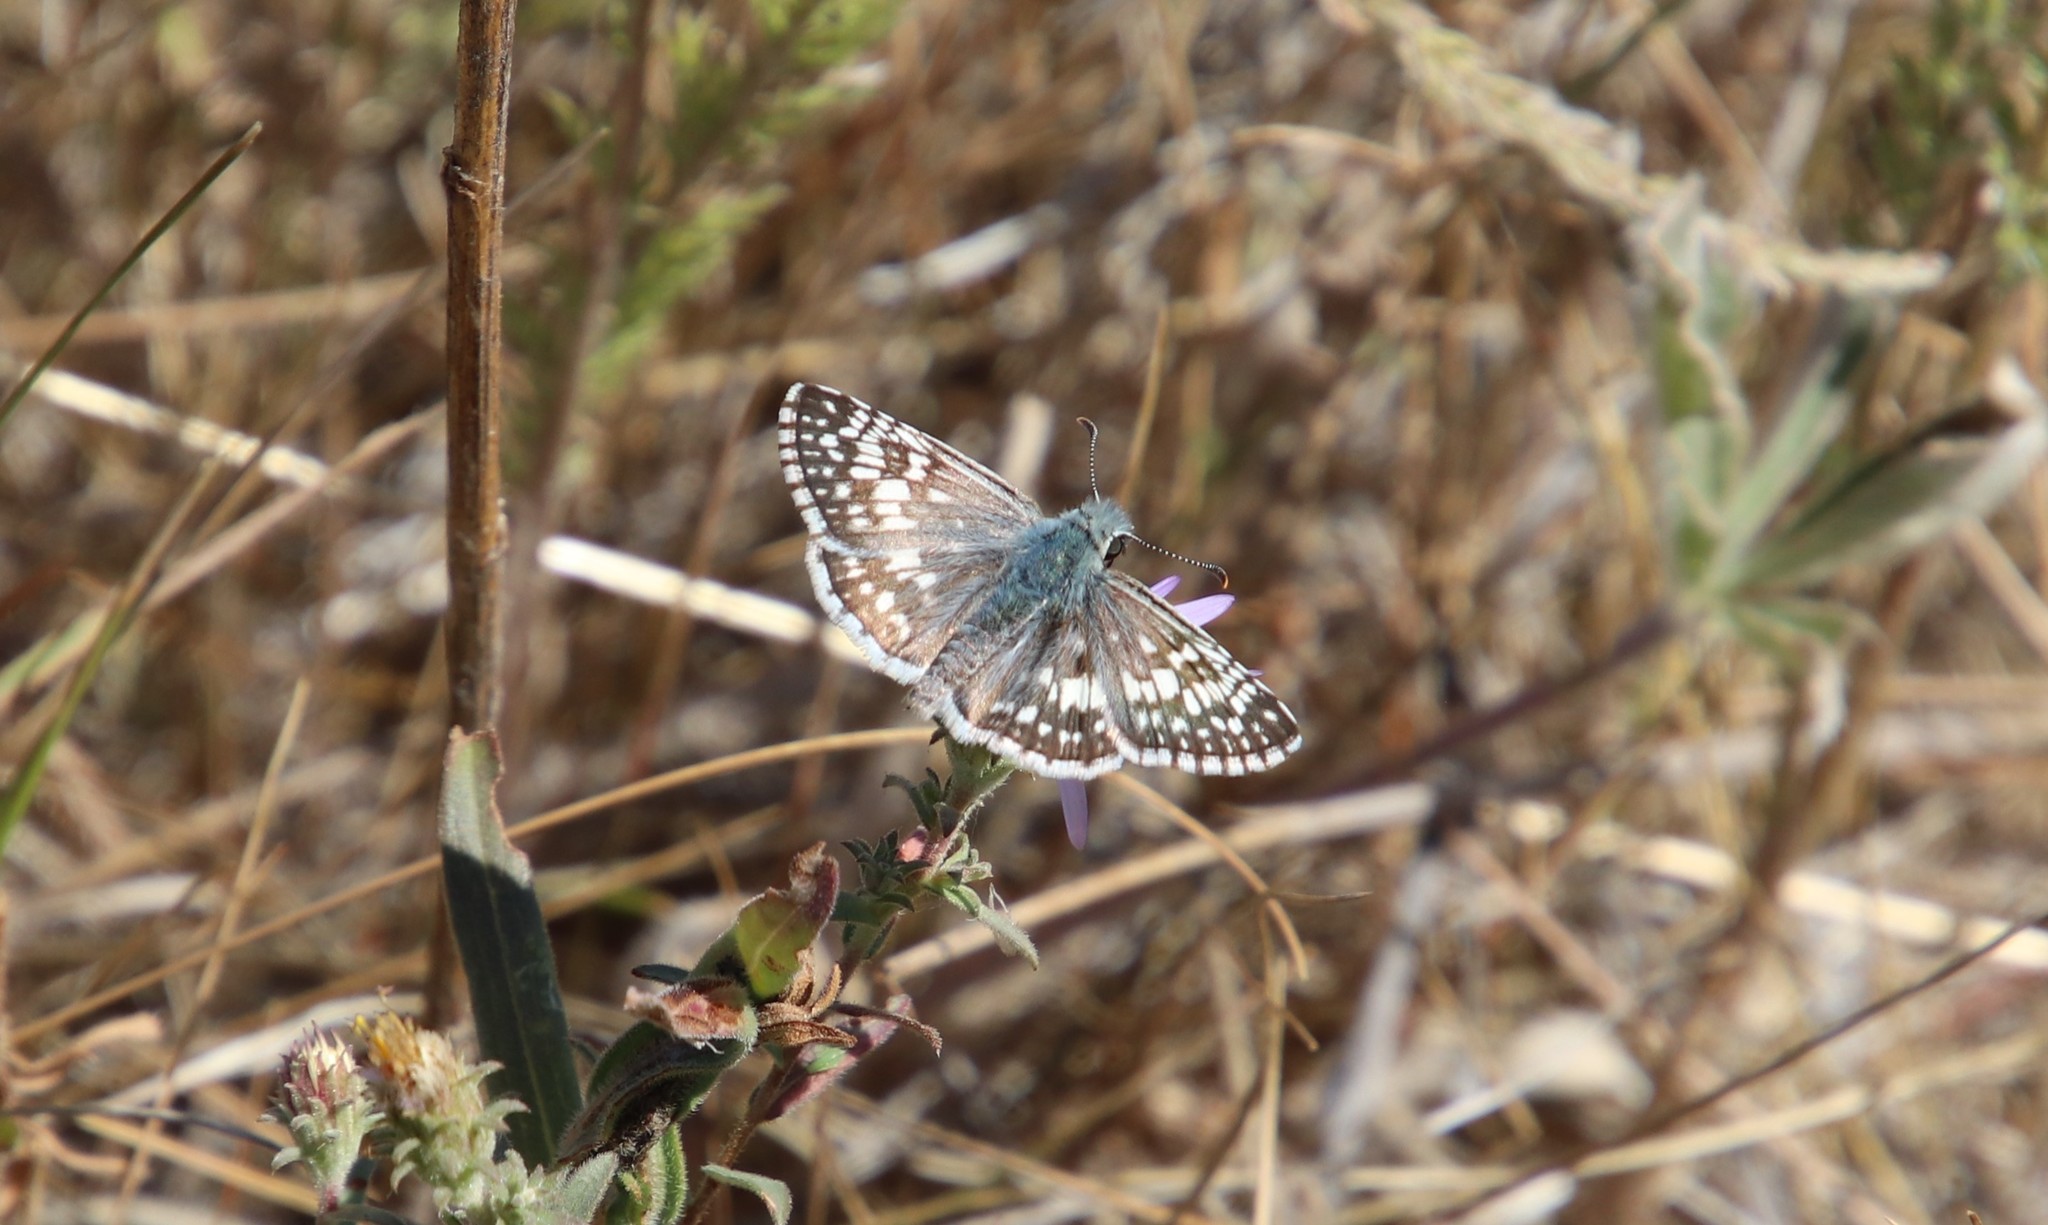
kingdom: Animalia
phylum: Arthropoda
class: Insecta
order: Lepidoptera
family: Hesperiidae
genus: Burnsius
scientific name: Burnsius communis
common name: Common checkered-skipper
